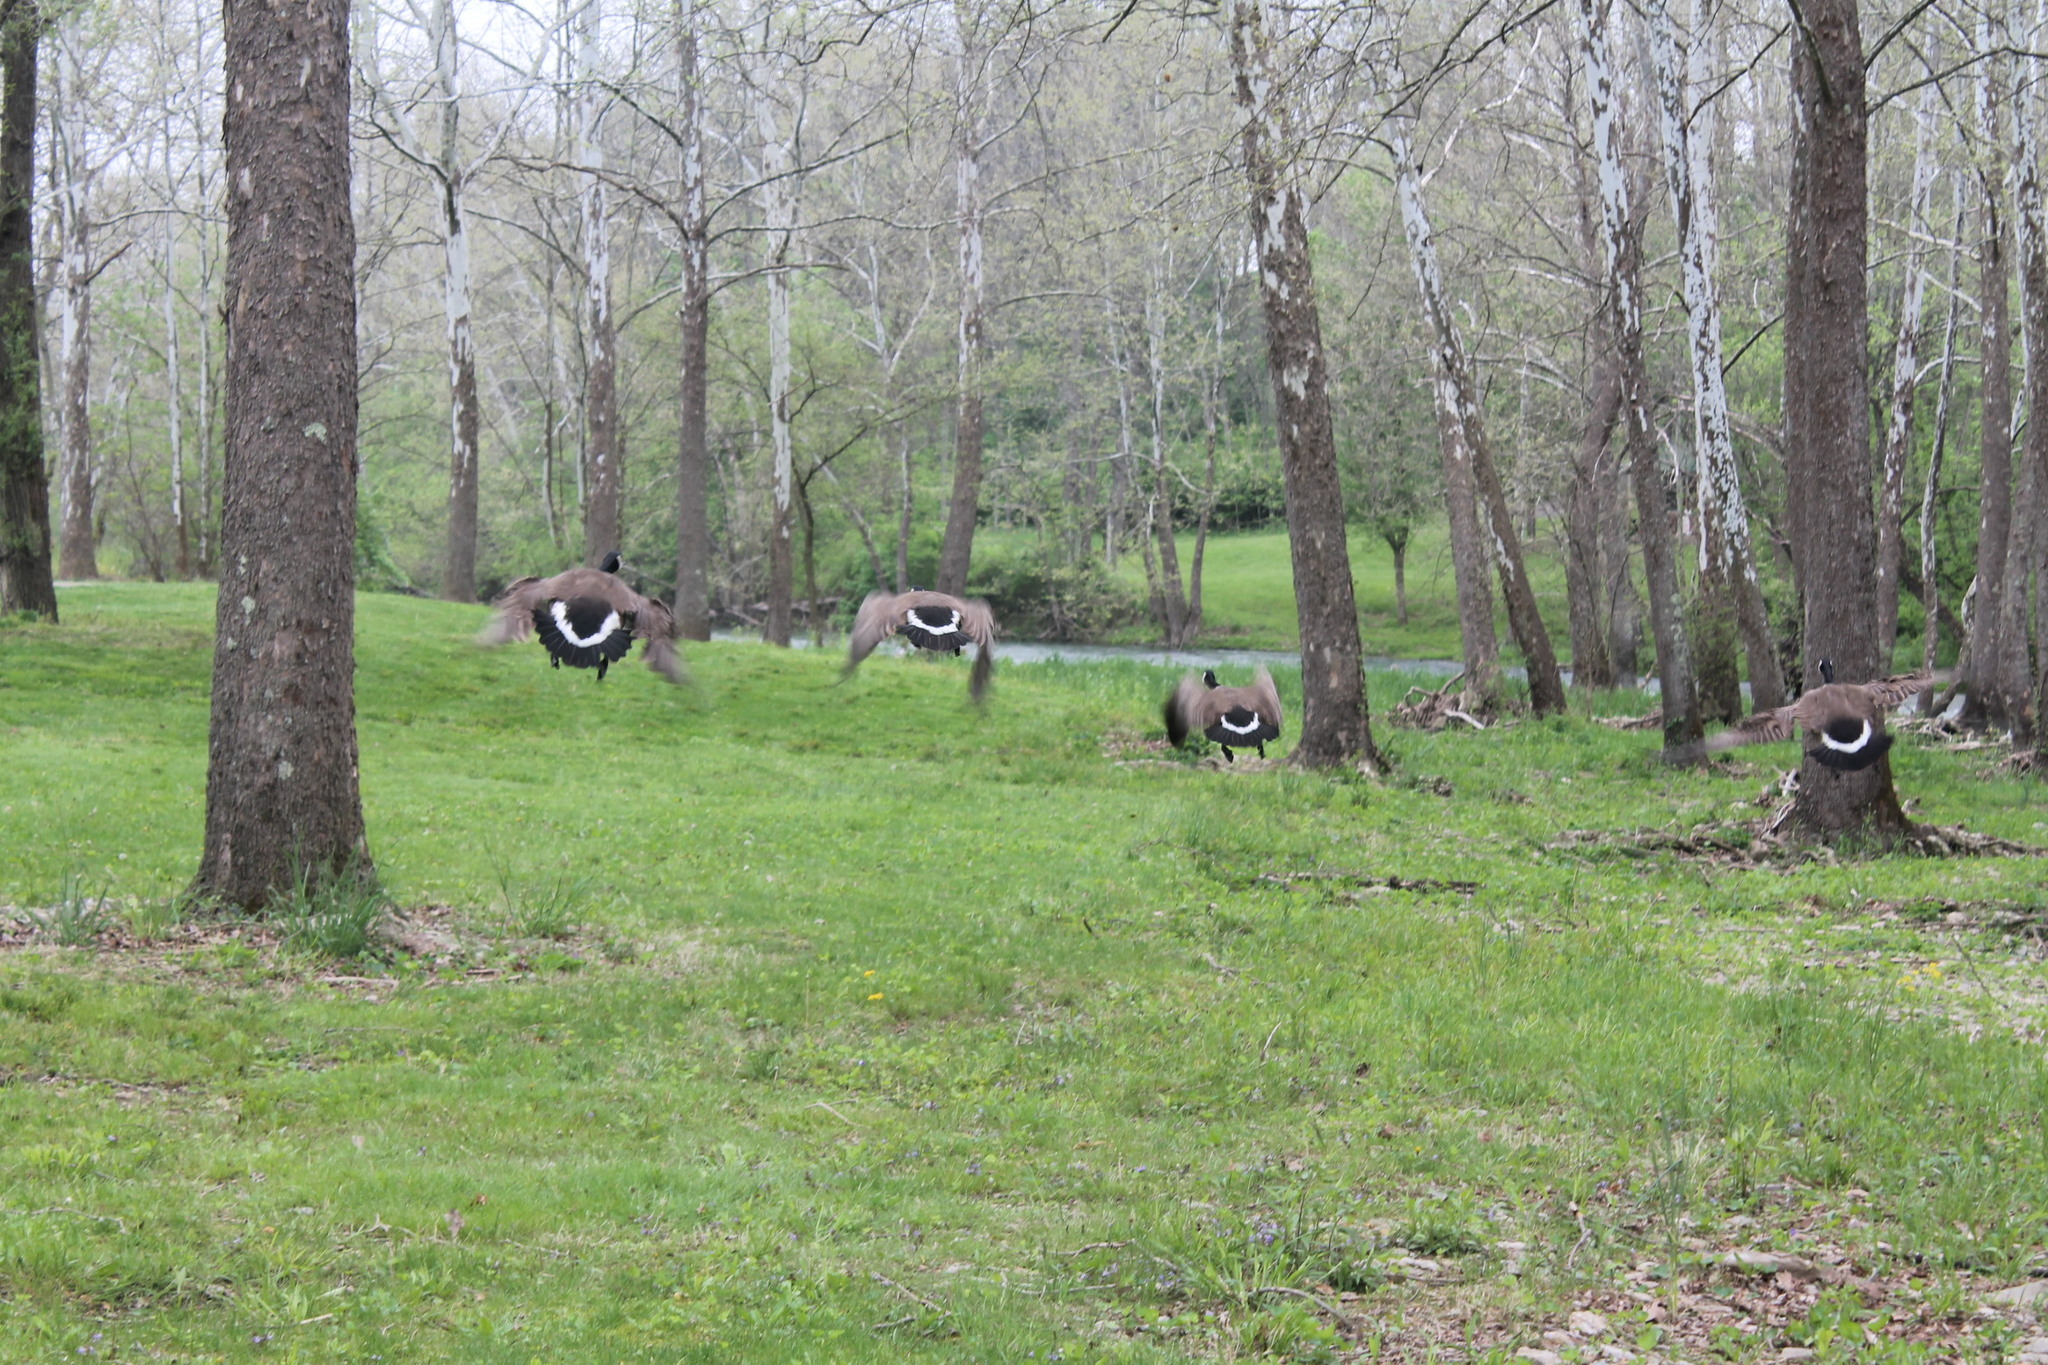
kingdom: Animalia
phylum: Chordata
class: Aves
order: Anseriformes
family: Anatidae
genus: Branta
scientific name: Branta canadensis
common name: Canada goose
